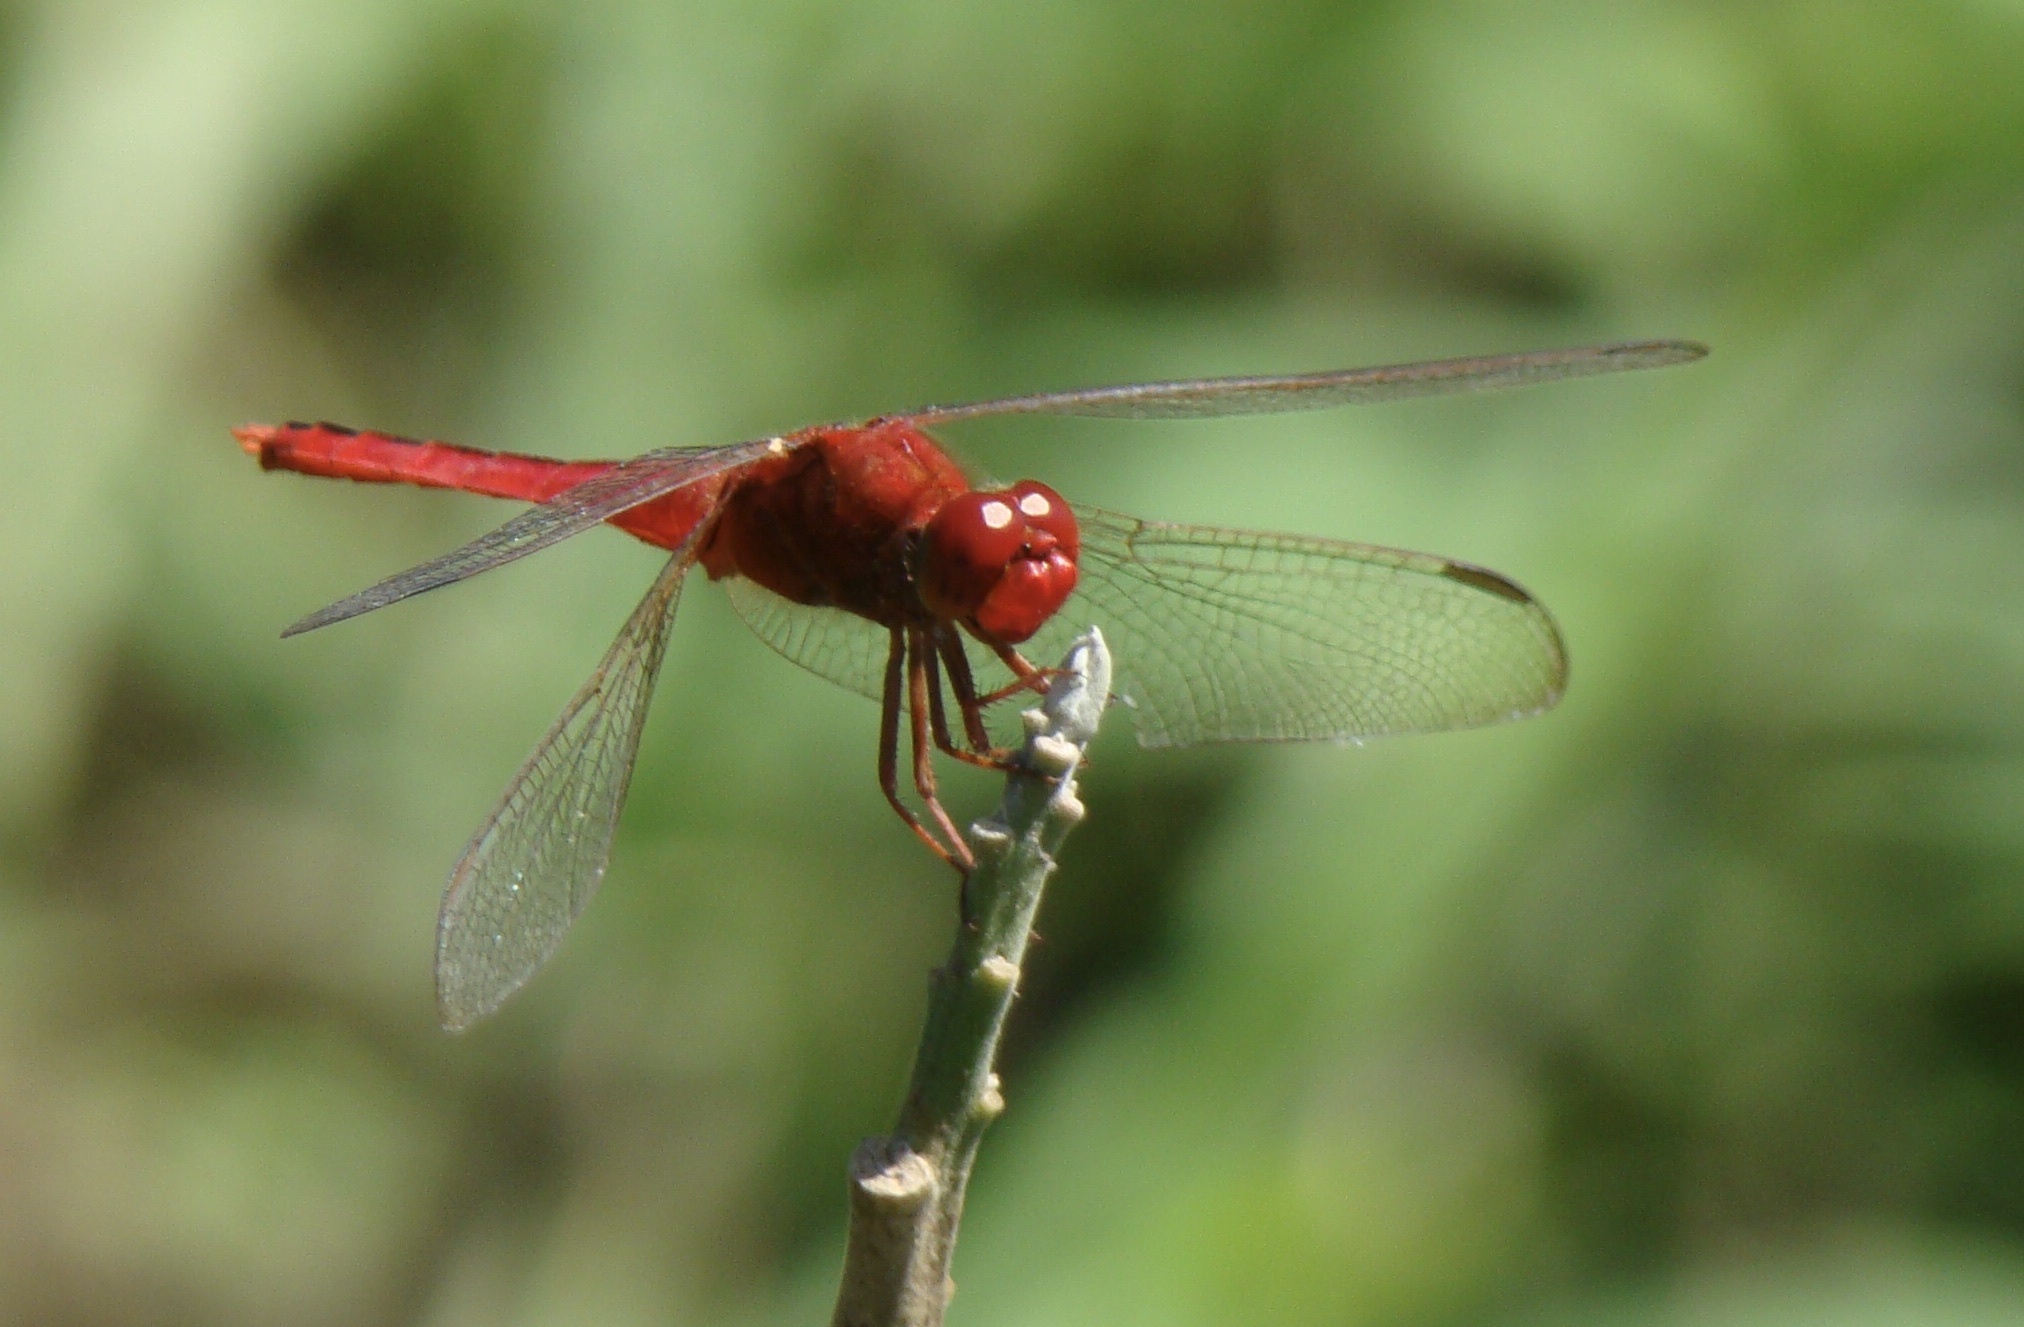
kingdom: Animalia
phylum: Arthropoda
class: Insecta
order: Odonata
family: Libellulidae
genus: Crocothemis
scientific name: Crocothemis servilia
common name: Scarlet skimmer
